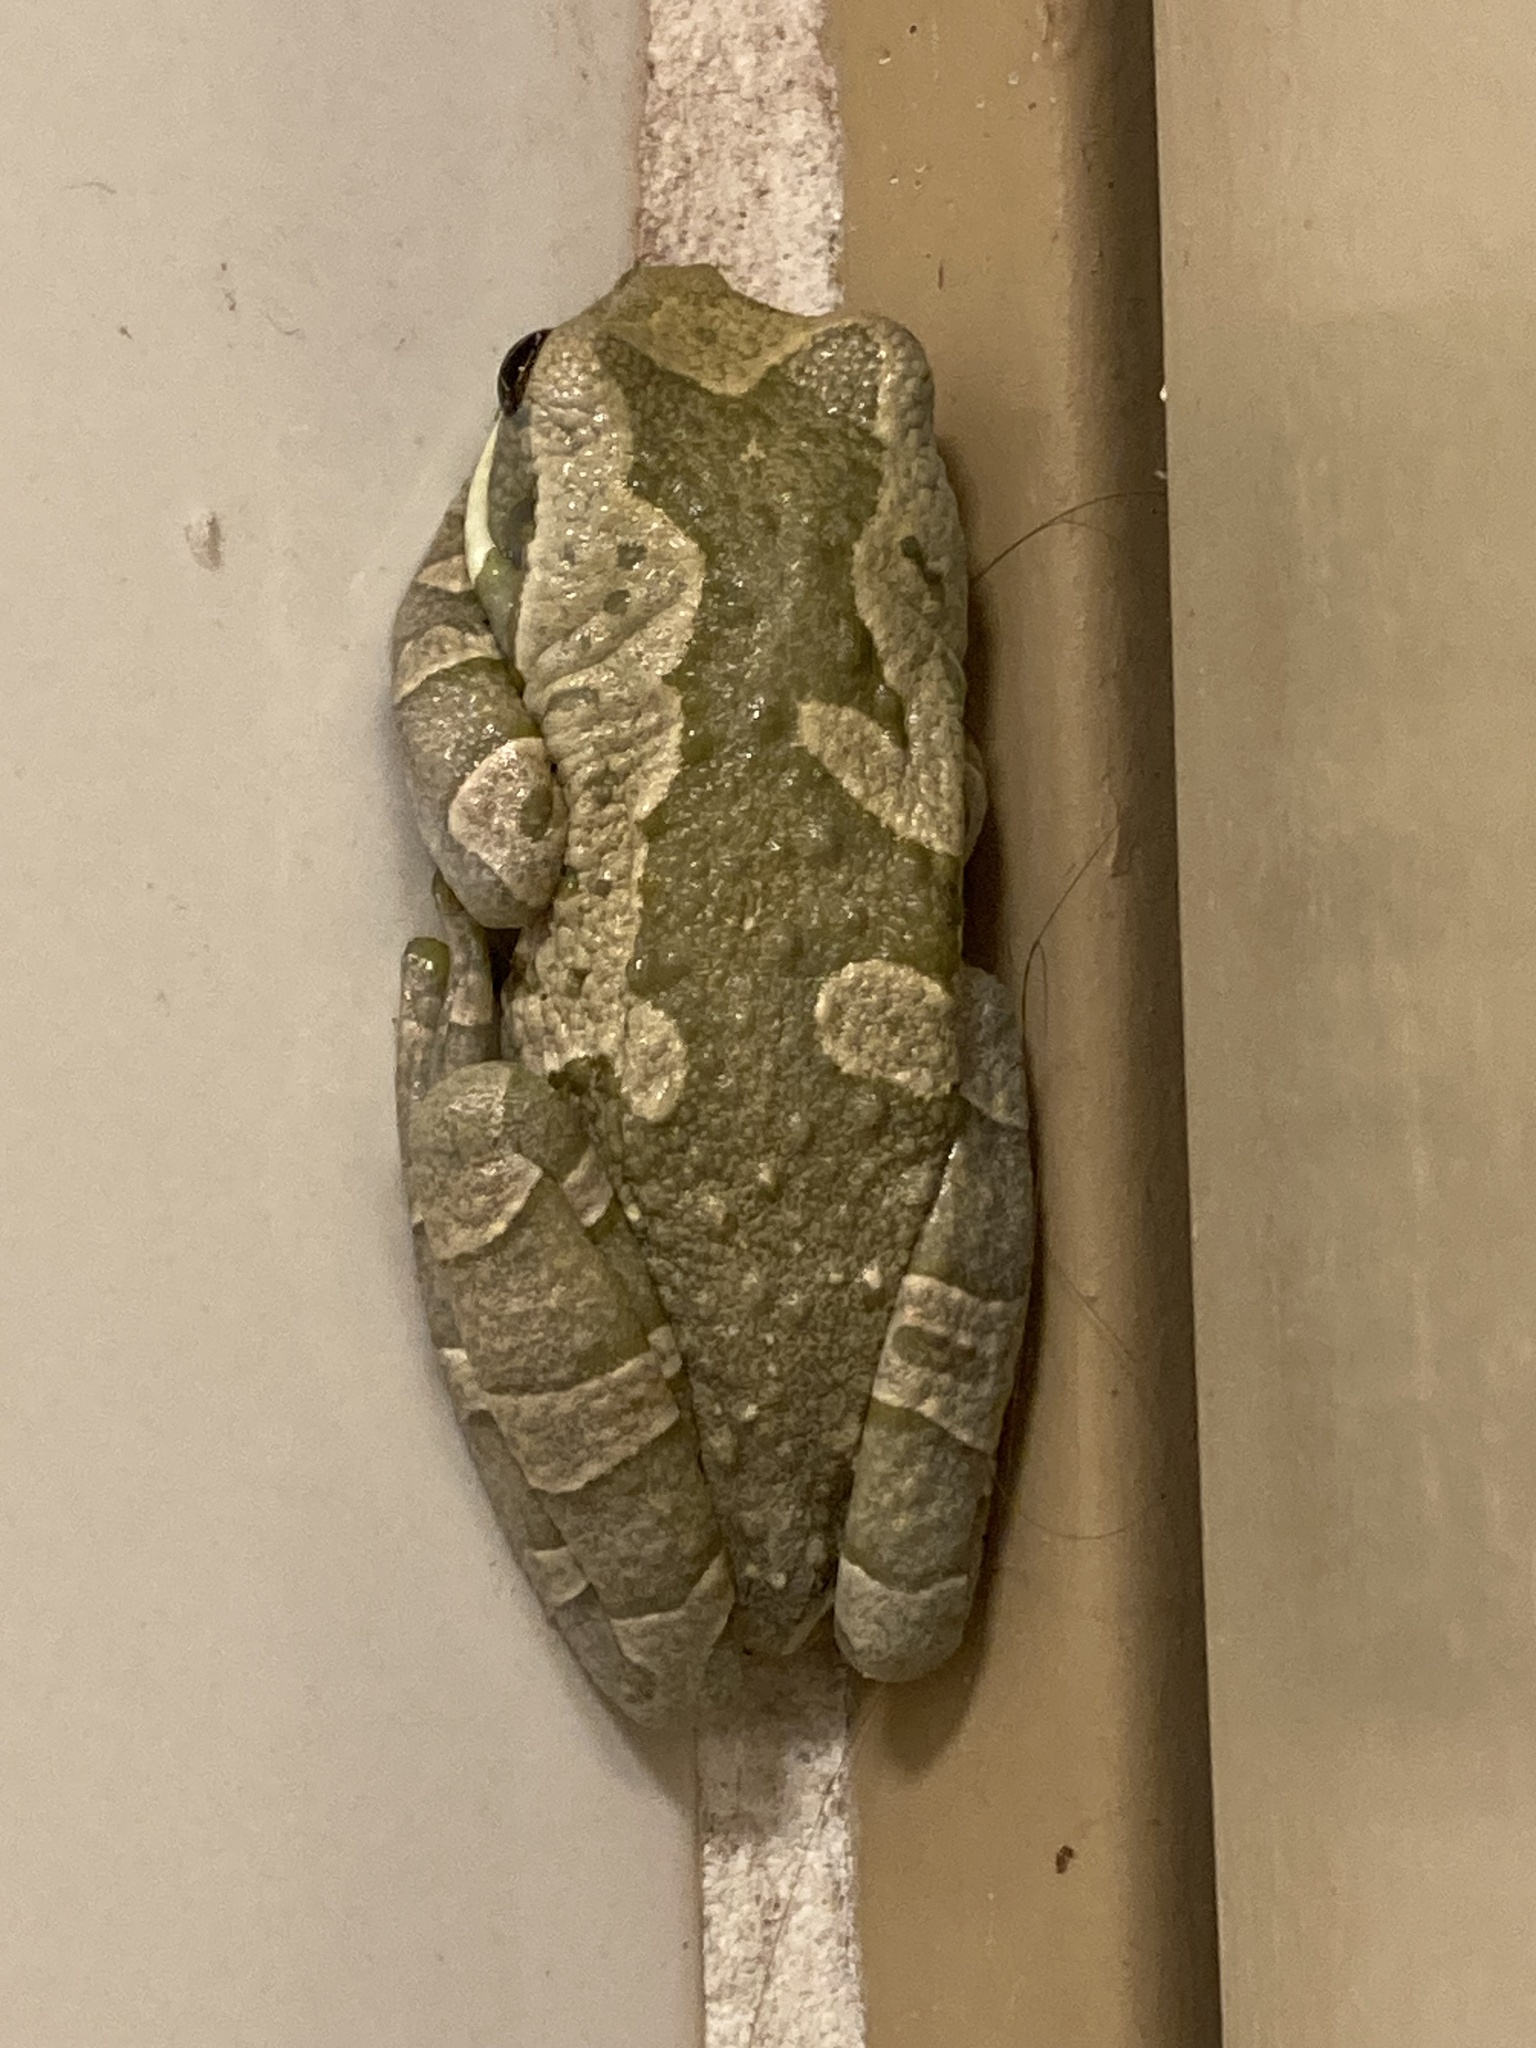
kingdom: Animalia
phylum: Chordata
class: Amphibia
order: Anura
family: Hylidae
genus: Trachycephalus
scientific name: Trachycephalus typhonius
